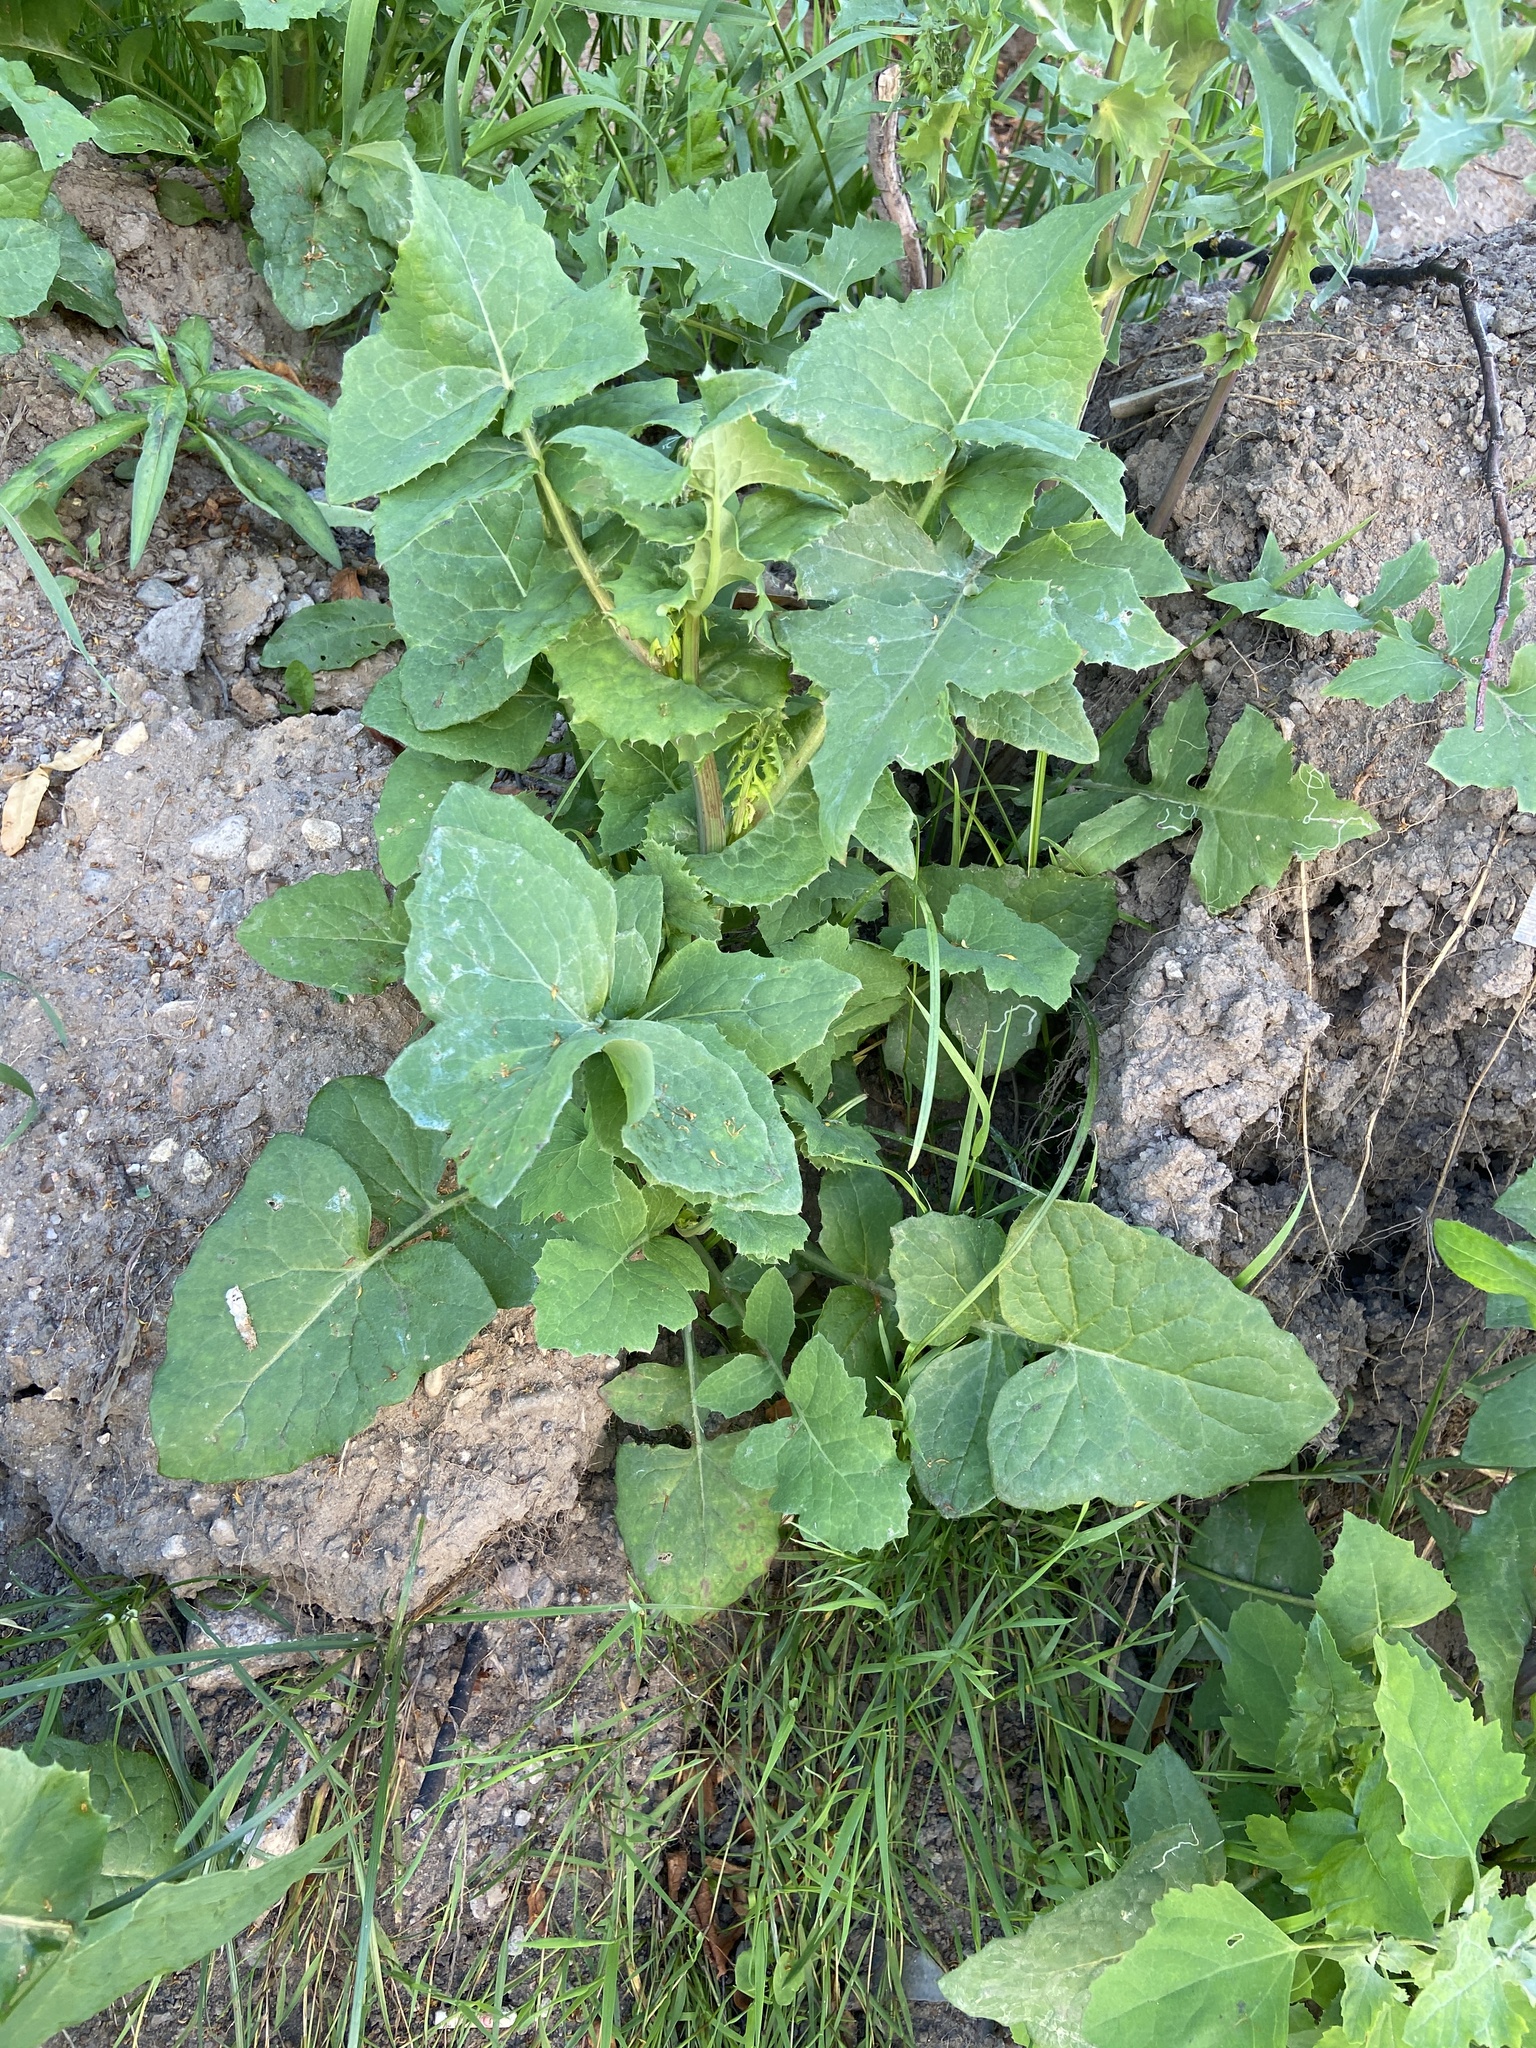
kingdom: Plantae
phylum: Tracheophyta
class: Magnoliopsida
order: Asterales
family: Asteraceae
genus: Sonchus
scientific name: Sonchus oleraceus
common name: Common sowthistle
